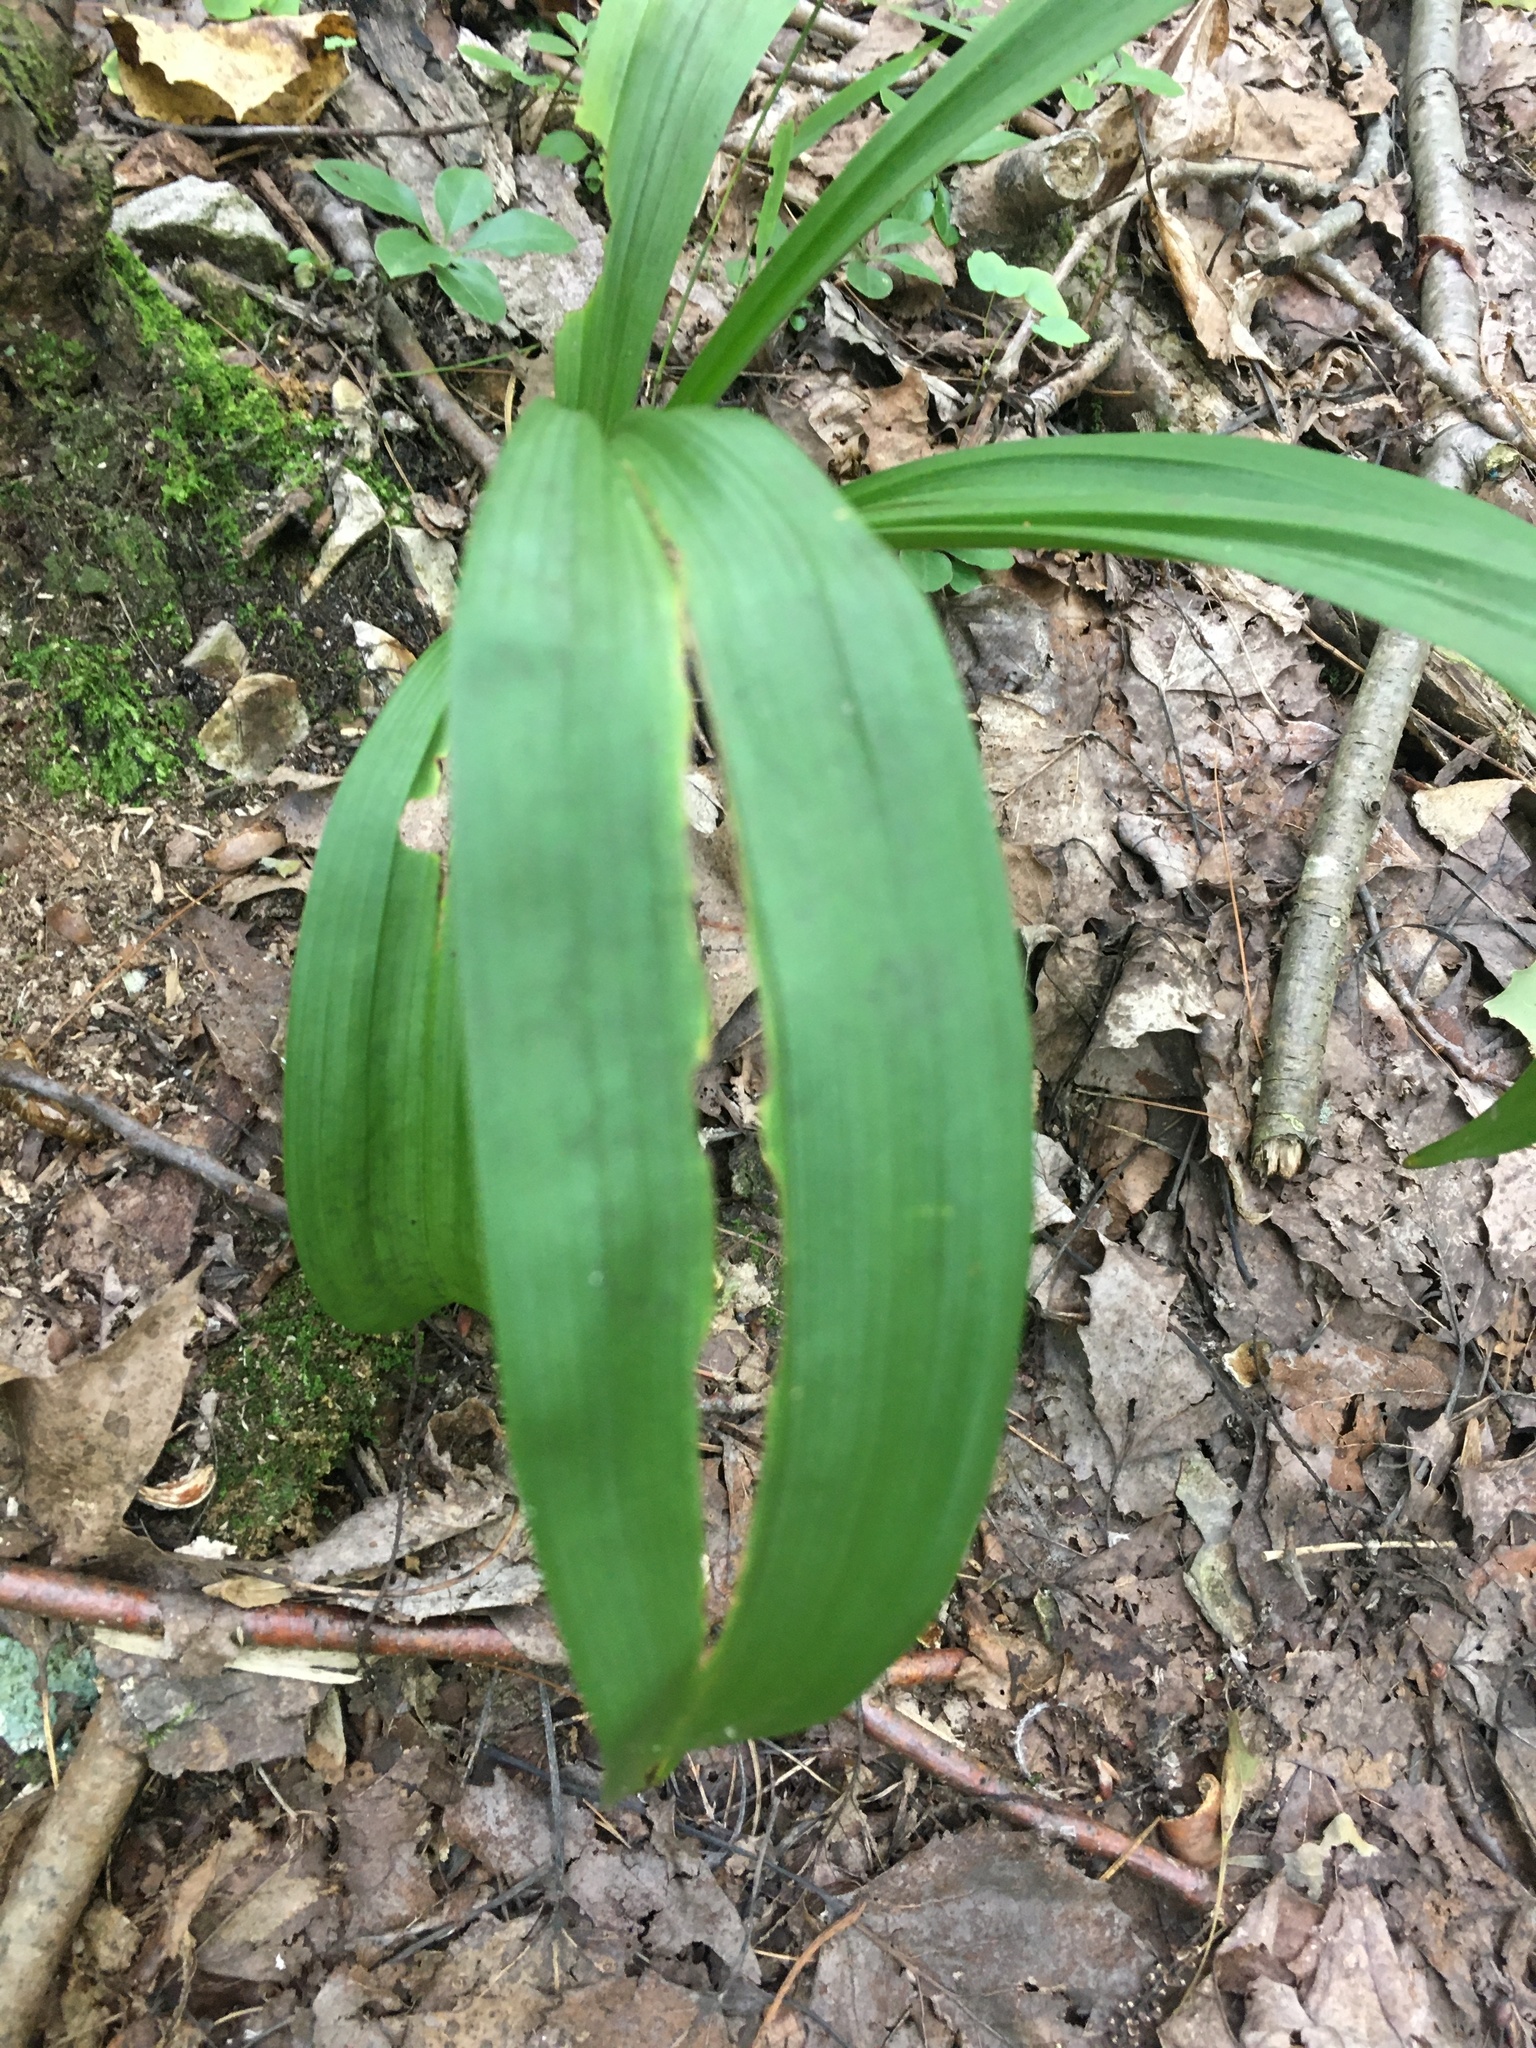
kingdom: Plantae
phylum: Tracheophyta
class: Liliopsida
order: Liliales
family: Melanthiaceae
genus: Amianthium
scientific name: Amianthium muscitoxicum
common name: Fly-poison
